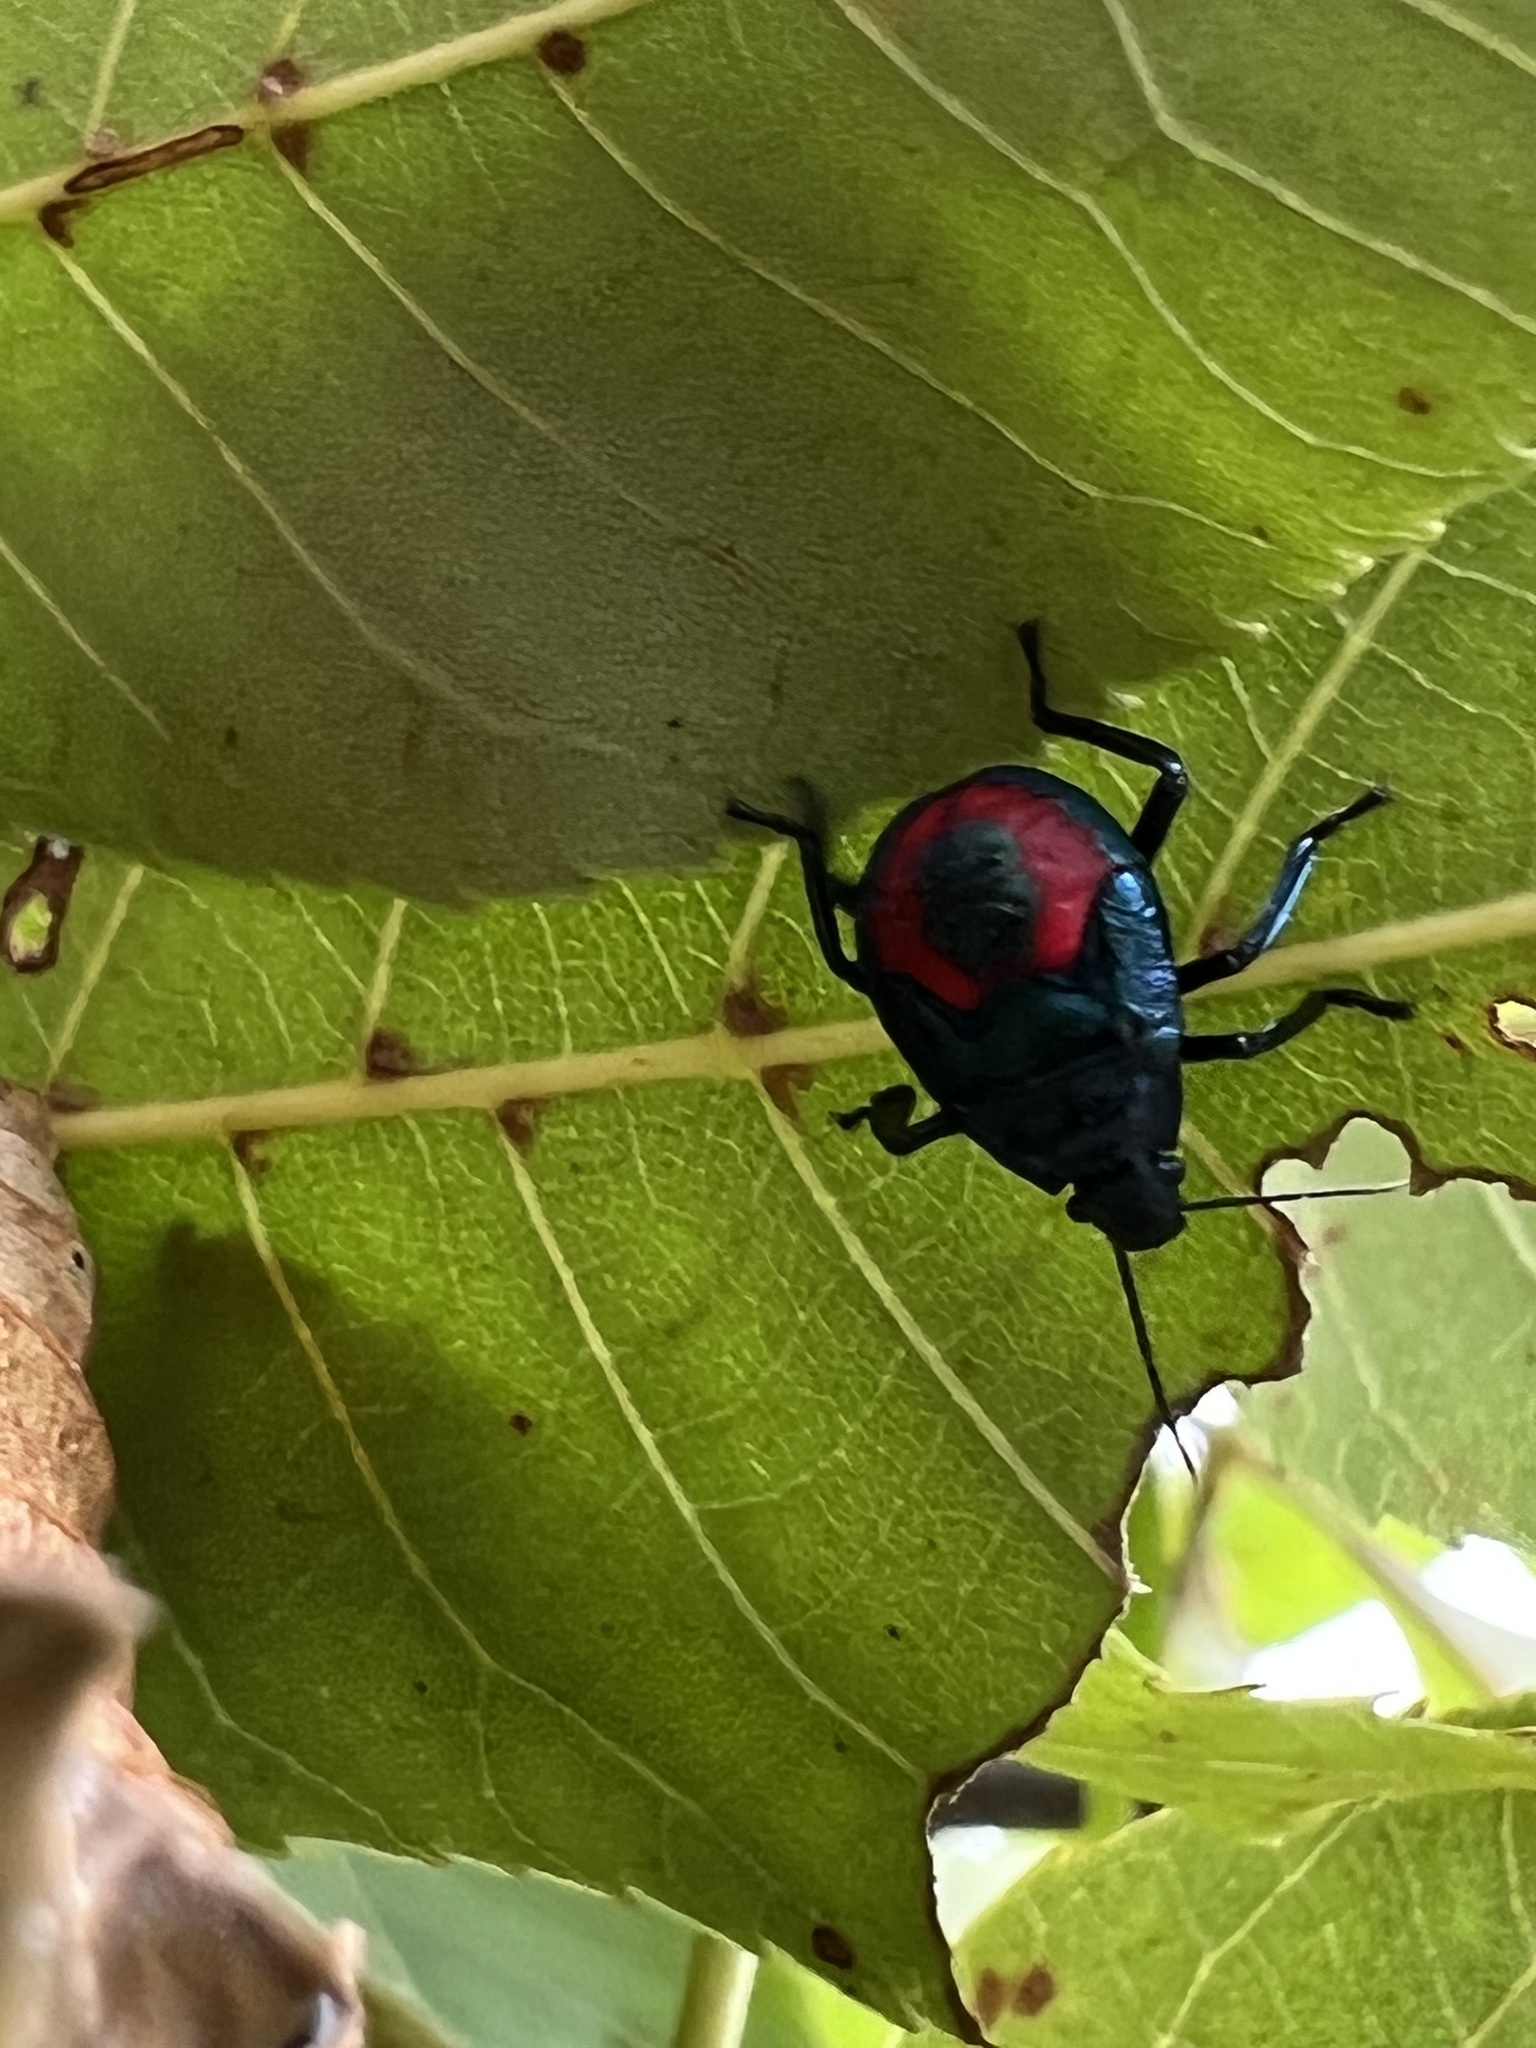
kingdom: Animalia
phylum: Arthropoda
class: Insecta
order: Hemiptera
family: Pentatomidae
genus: Euthyrhynchus
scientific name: Euthyrhynchus floridanus
